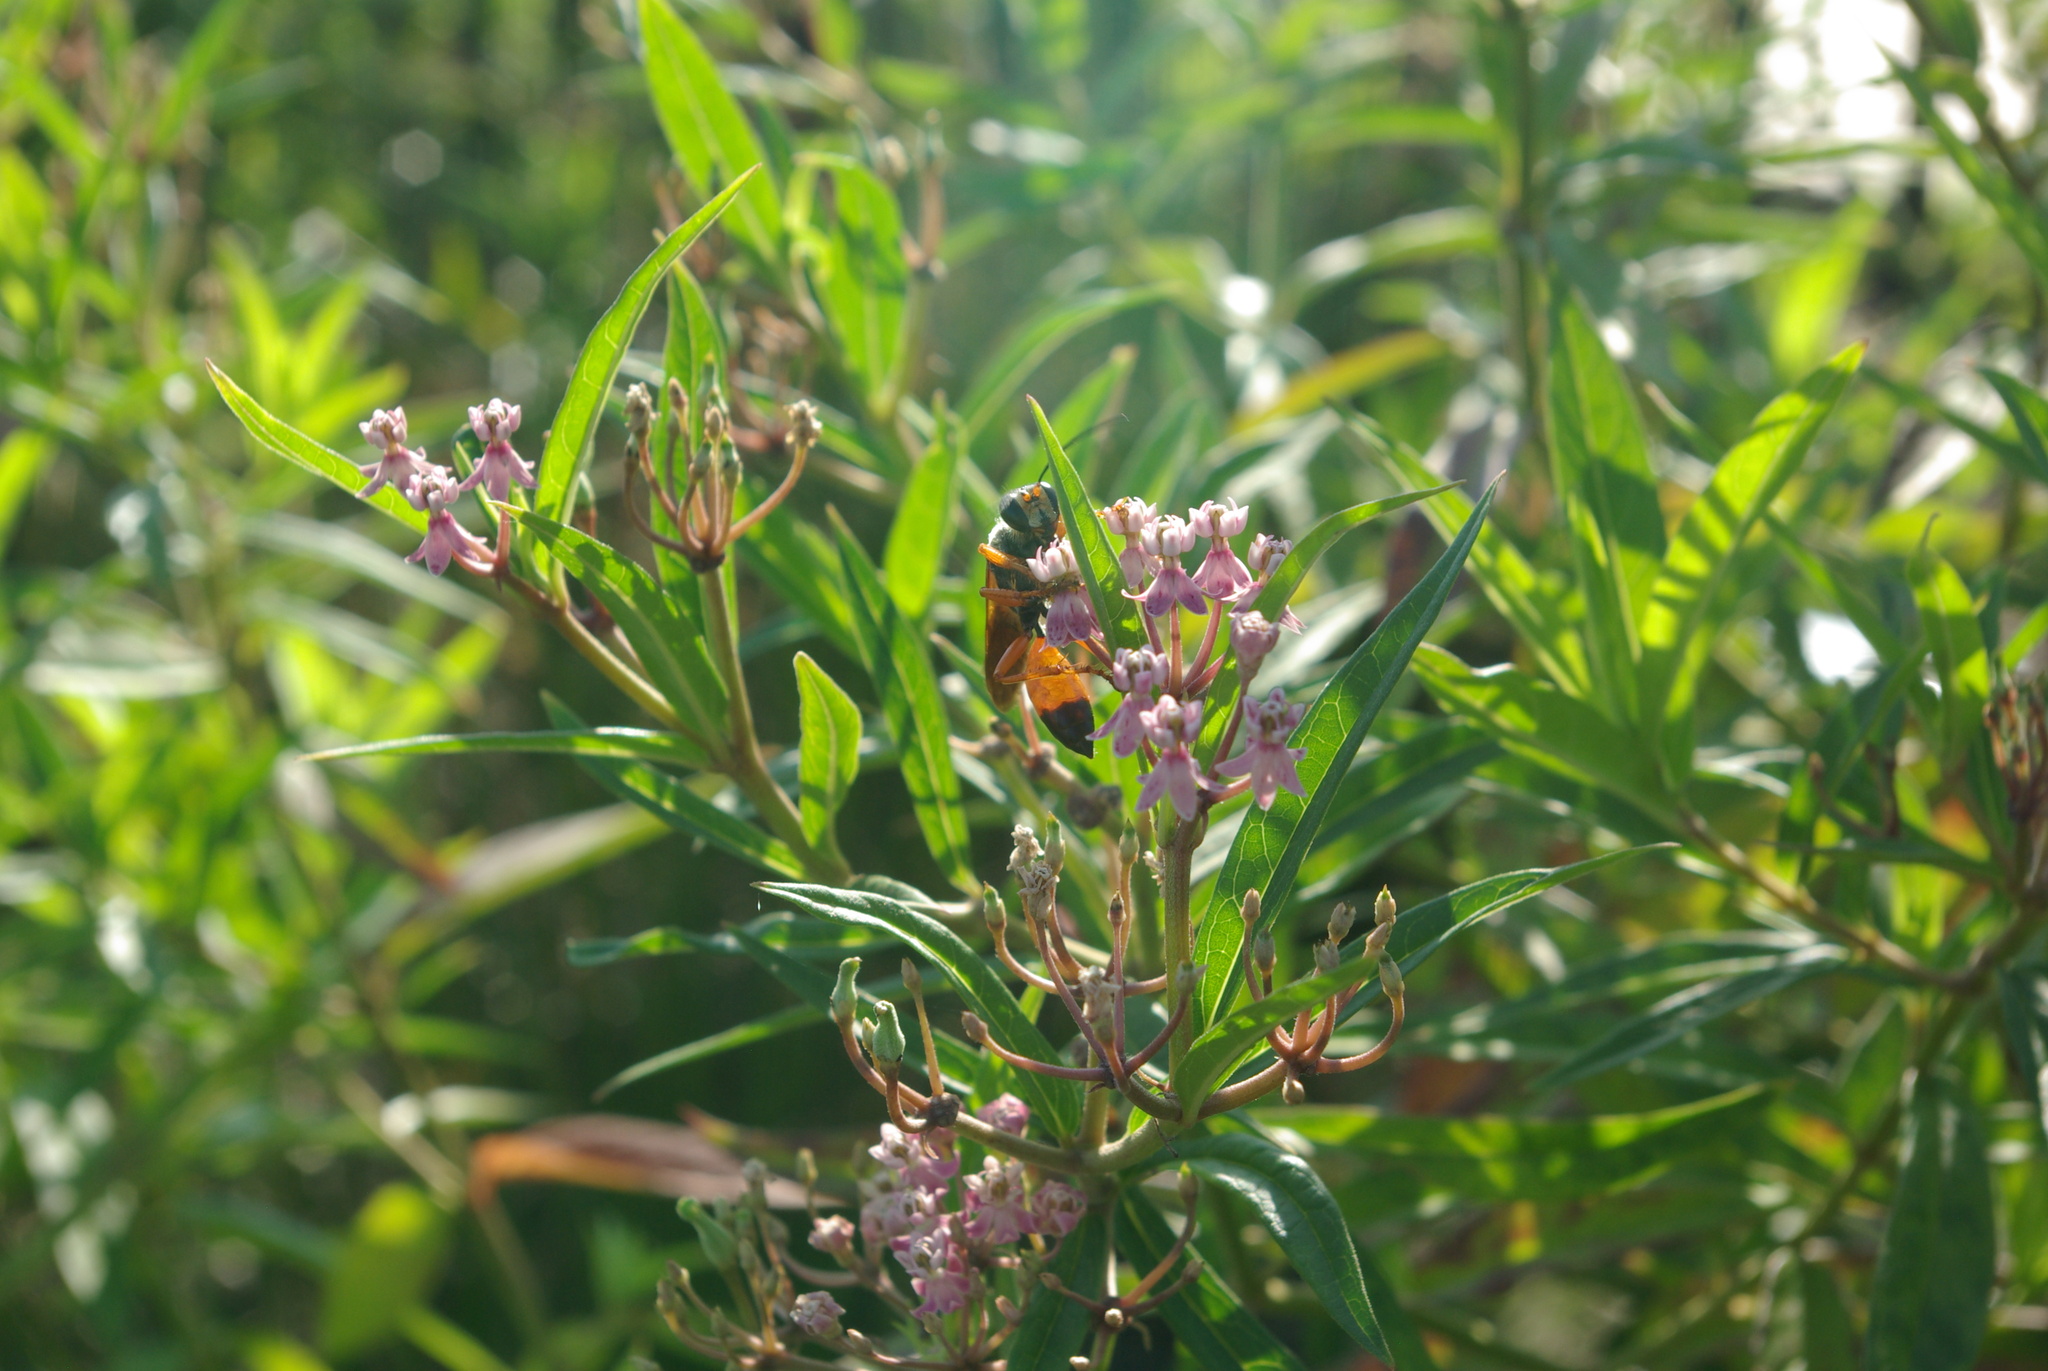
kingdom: Animalia
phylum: Arthropoda
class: Insecta
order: Hymenoptera
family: Sphecidae
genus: Sphex
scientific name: Sphex ichneumoneus
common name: Great golden digger wasp
